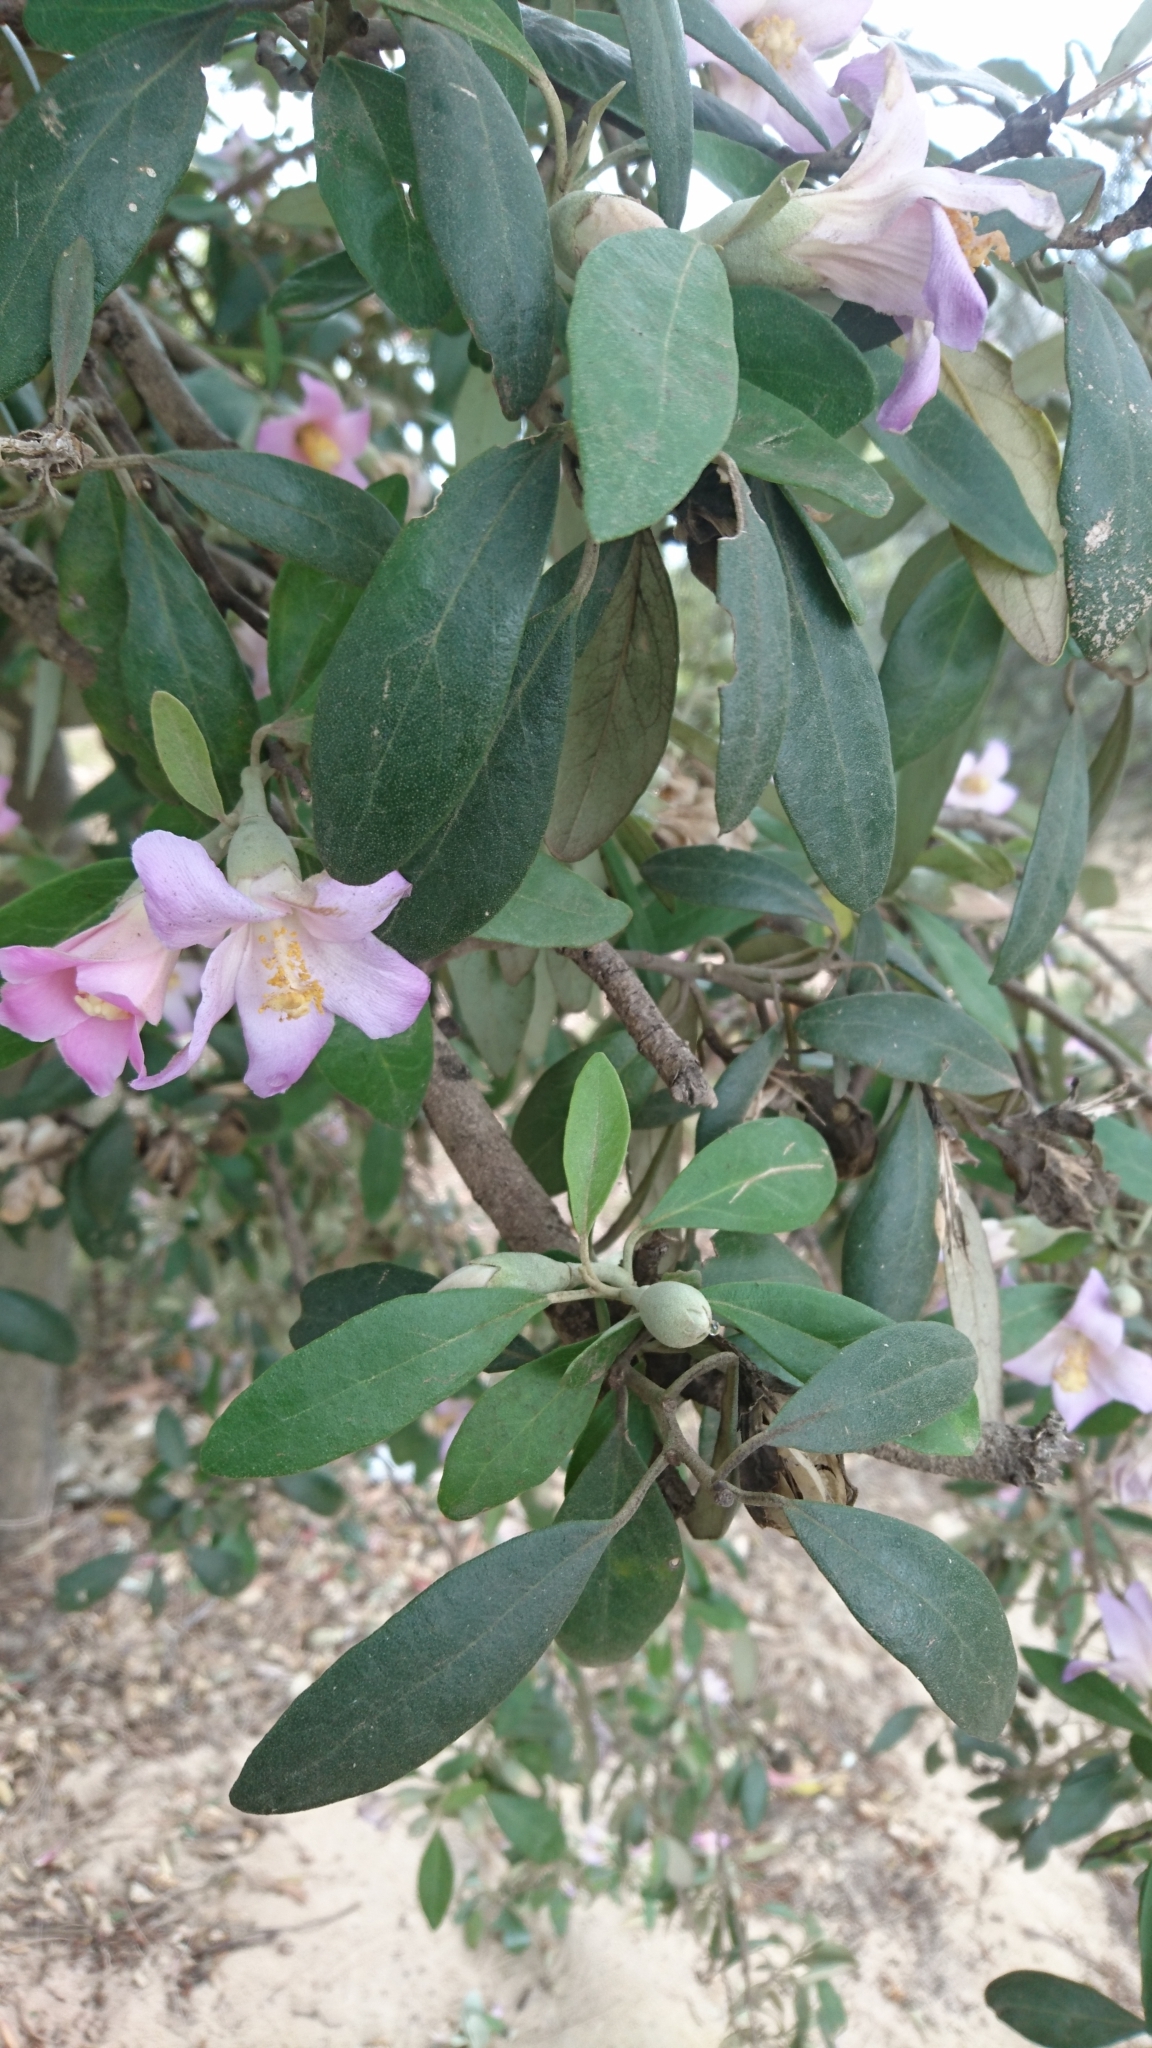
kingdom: Plantae
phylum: Tracheophyta
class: Magnoliopsida
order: Malvales
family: Malvaceae
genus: Lagunaria
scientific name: Lagunaria patersonia
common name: Cow itch tree
